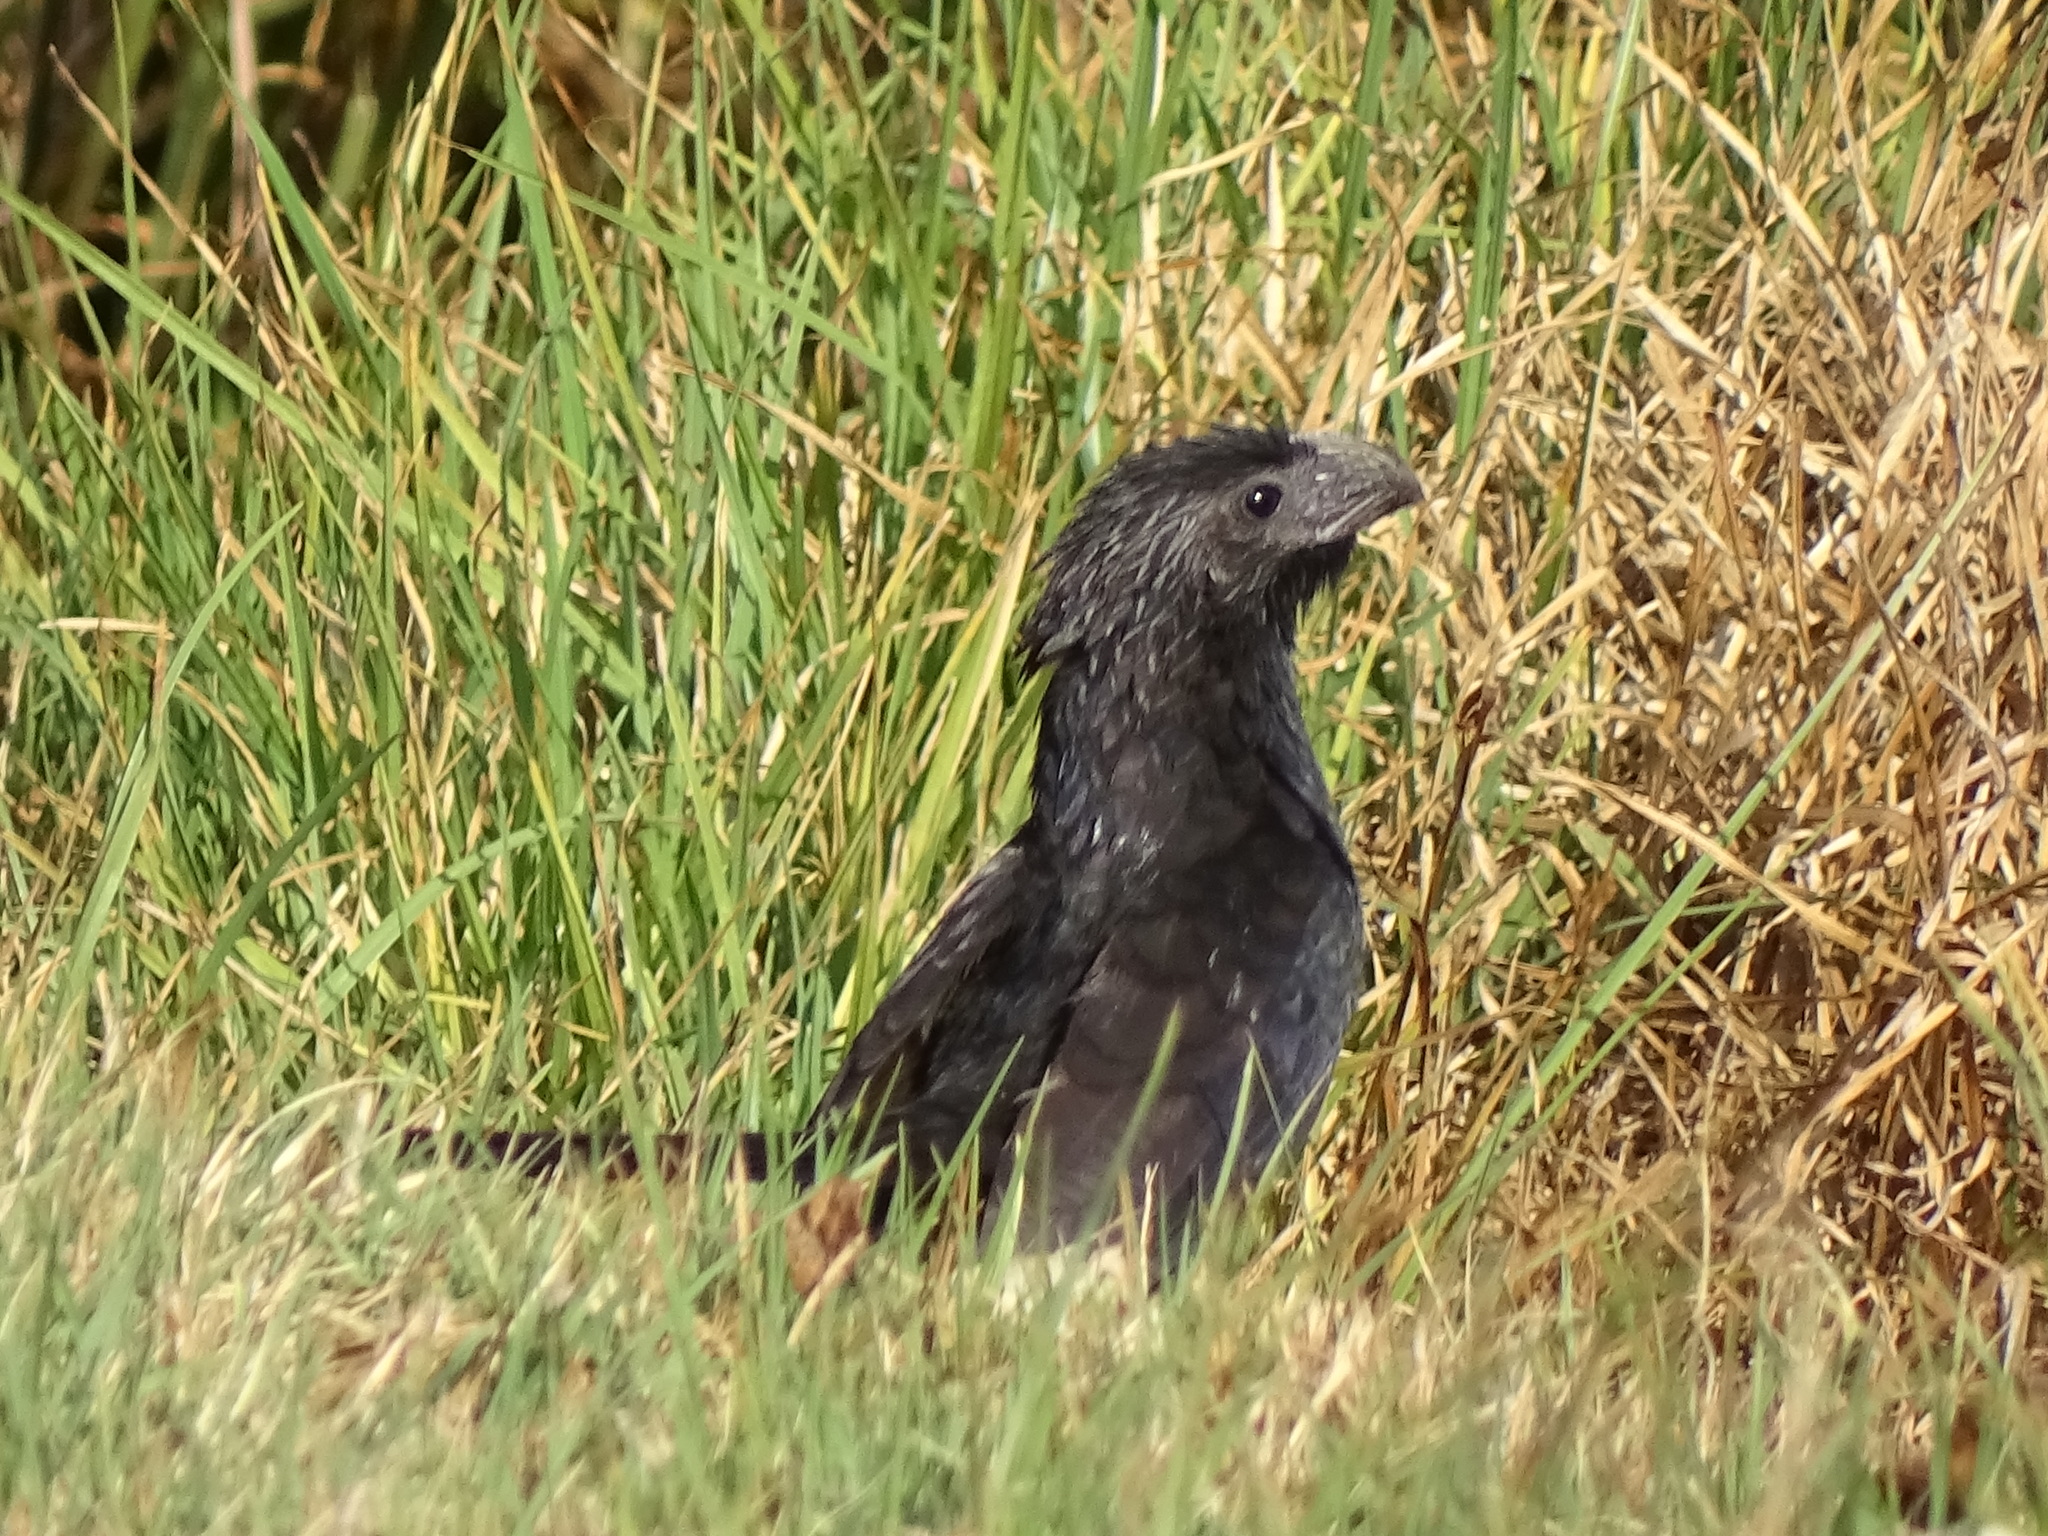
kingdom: Animalia
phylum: Chordata
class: Aves
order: Cuculiformes
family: Cuculidae
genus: Crotophaga
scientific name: Crotophaga sulcirostris
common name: Groove-billed ani
